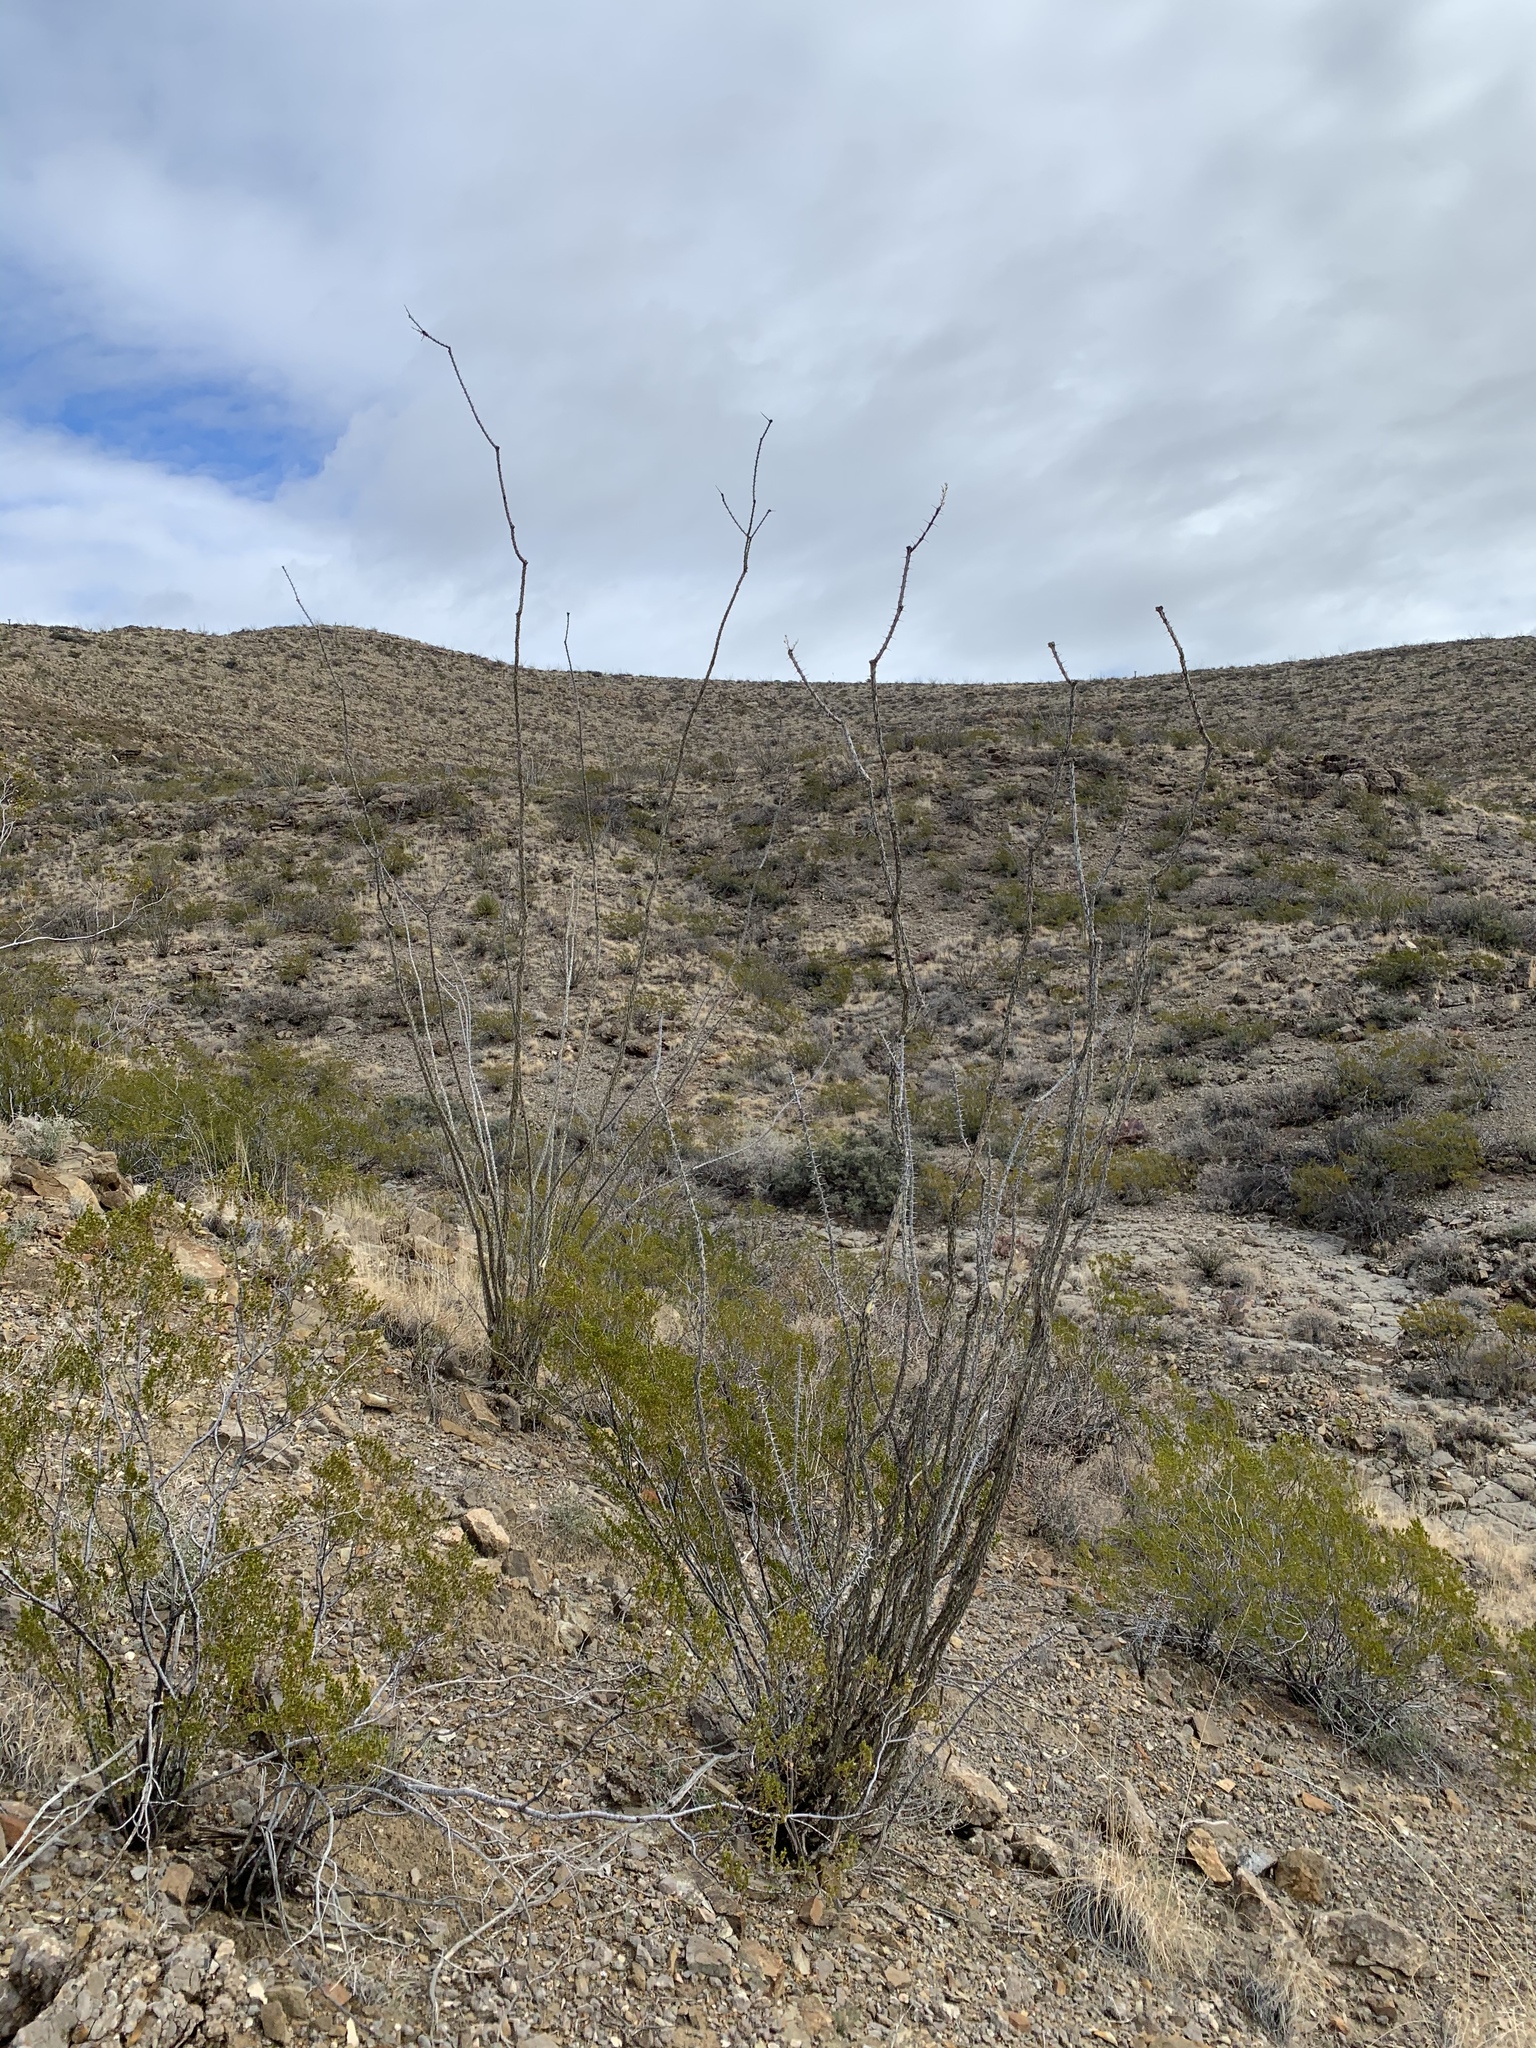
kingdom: Plantae
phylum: Tracheophyta
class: Magnoliopsida
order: Ericales
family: Fouquieriaceae
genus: Fouquieria
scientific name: Fouquieria splendens
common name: Vine-cactus
